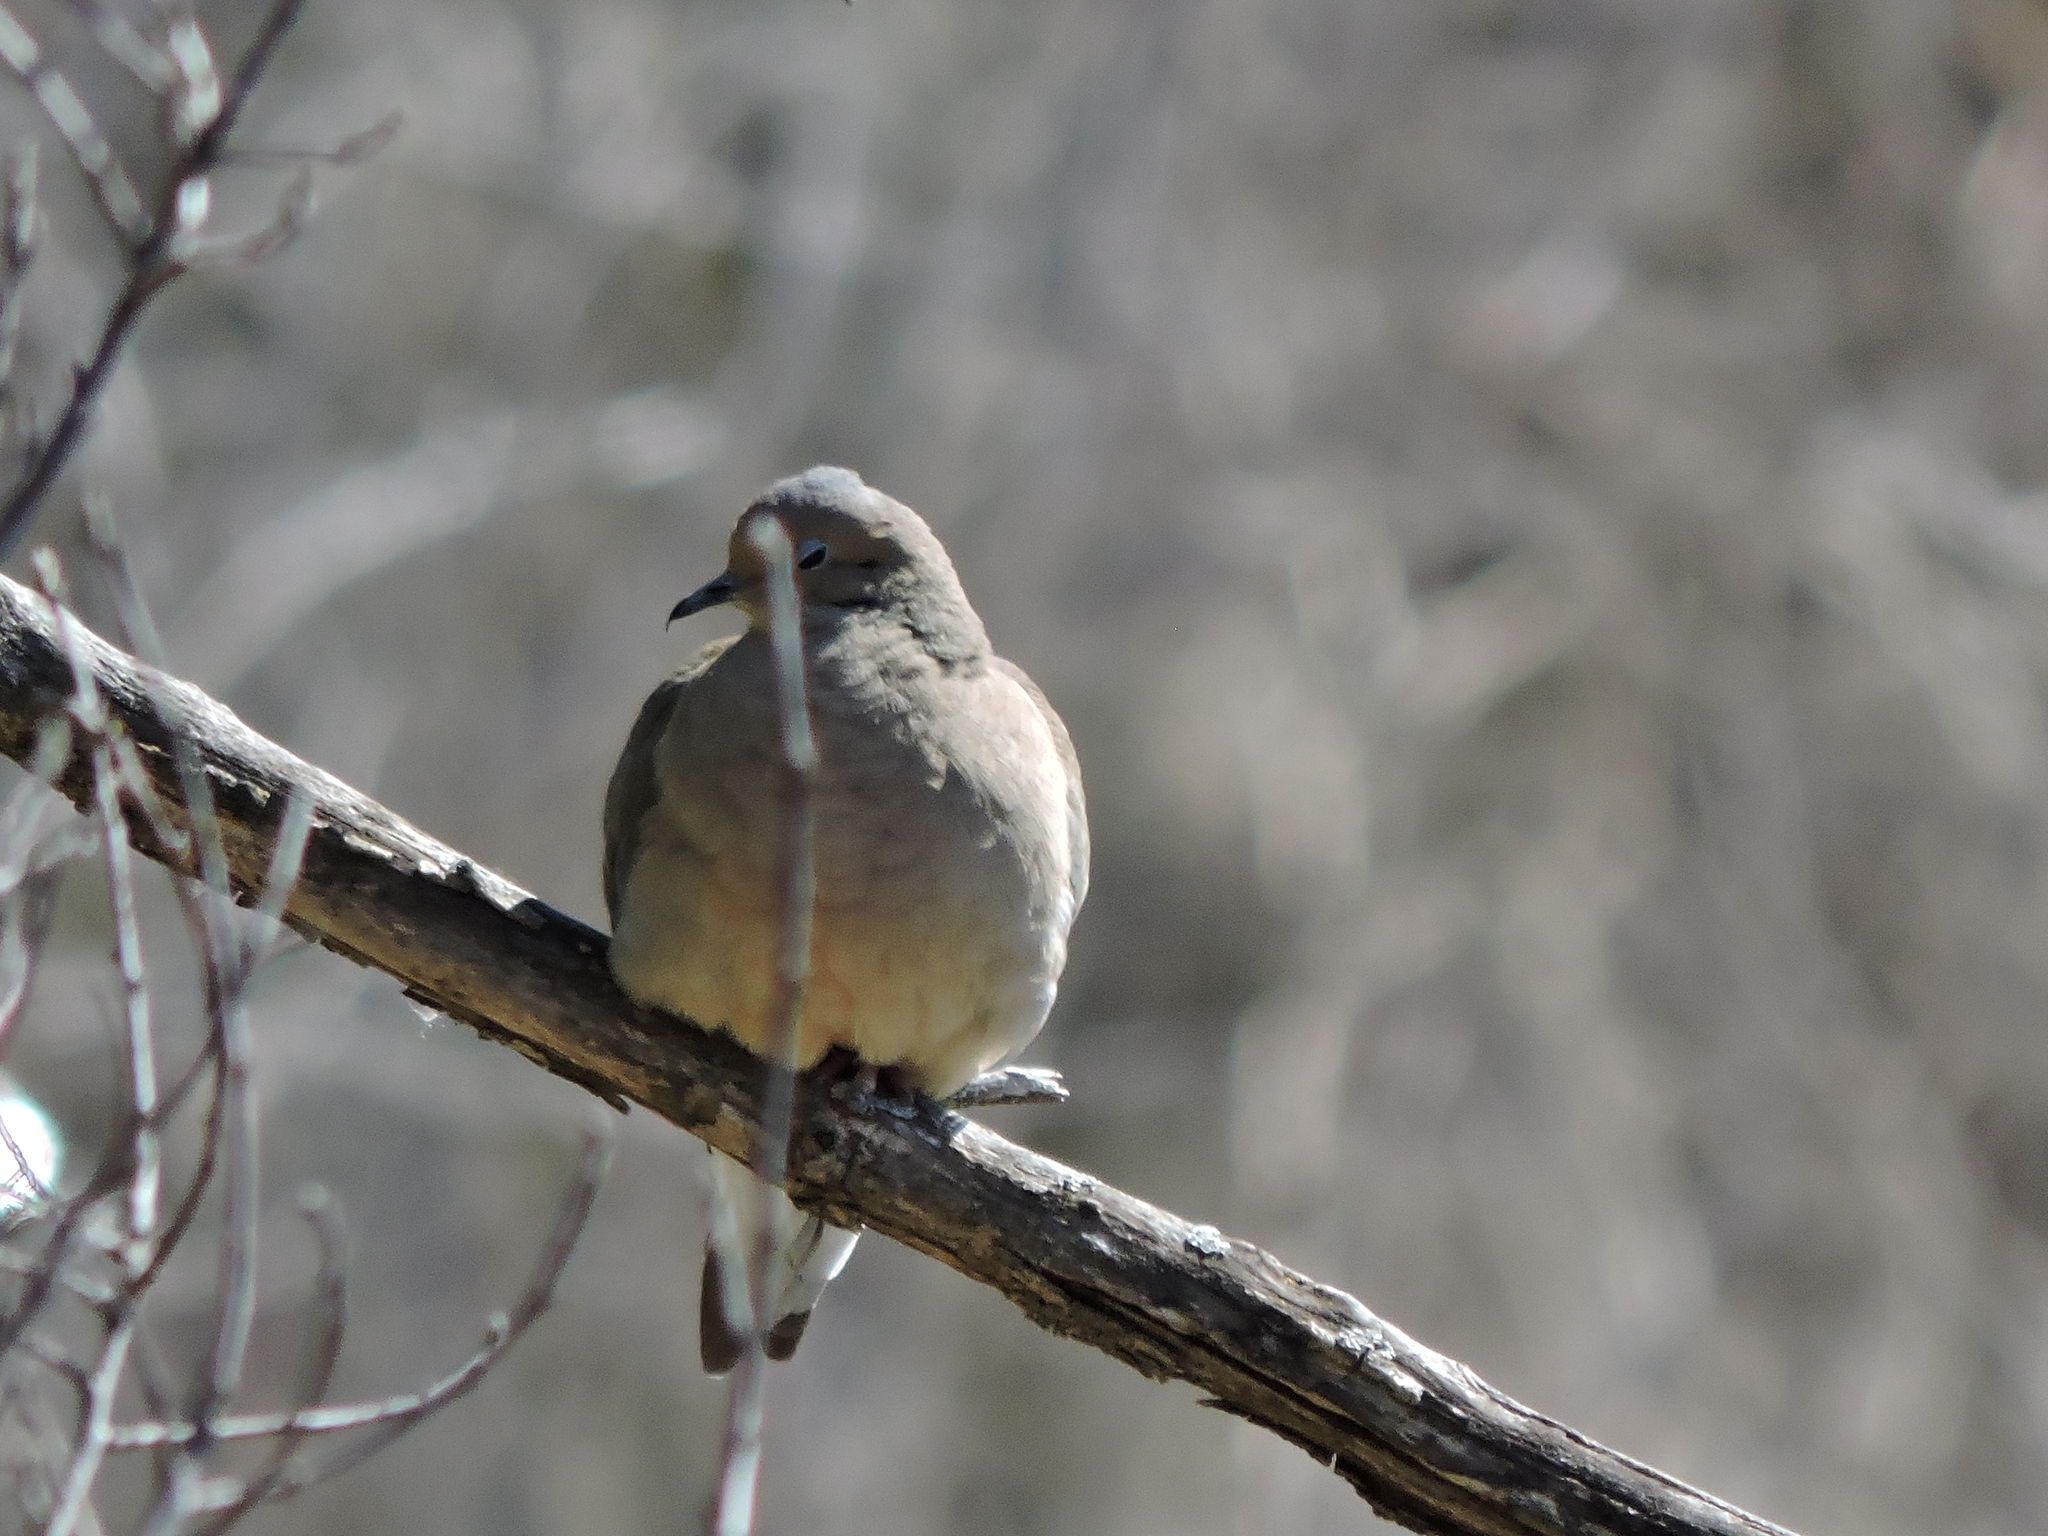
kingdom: Animalia
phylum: Chordata
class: Aves
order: Columbiformes
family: Columbidae
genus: Zenaida
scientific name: Zenaida macroura
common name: Mourning dove
